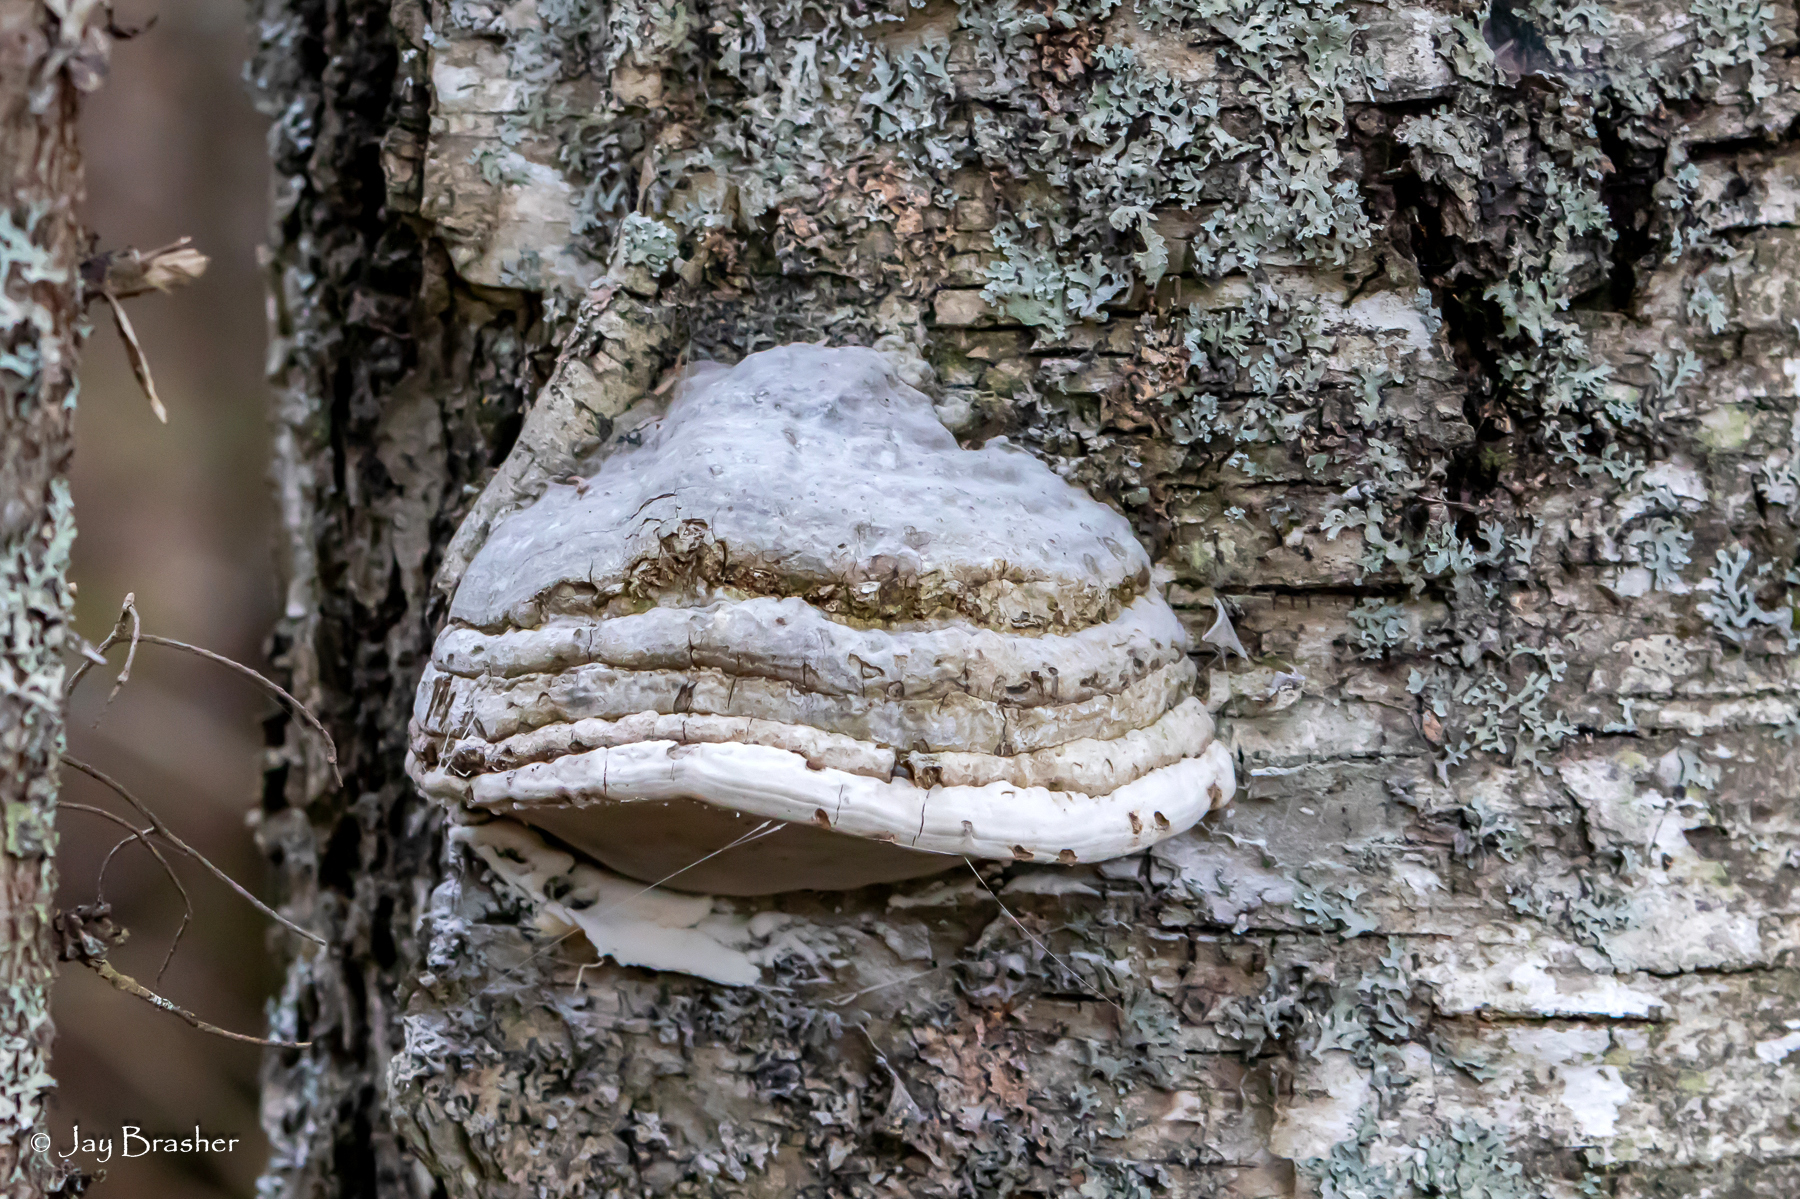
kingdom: Fungi
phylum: Basidiomycota
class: Agaricomycetes
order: Polyporales
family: Polyporaceae
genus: Fomes
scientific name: Fomes fomentarius
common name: Hoof fungus
